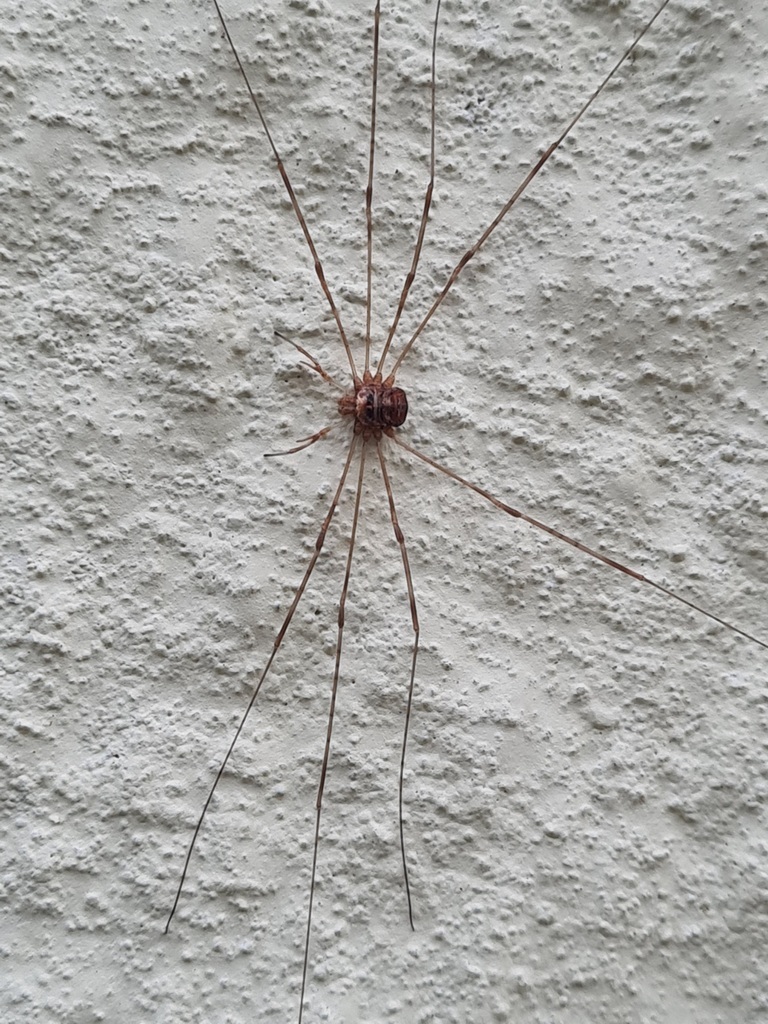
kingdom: Animalia
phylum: Arthropoda
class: Arachnida
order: Opiliones
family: Phalangiidae
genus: Dicranopalpus
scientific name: Dicranopalpus ramosus
